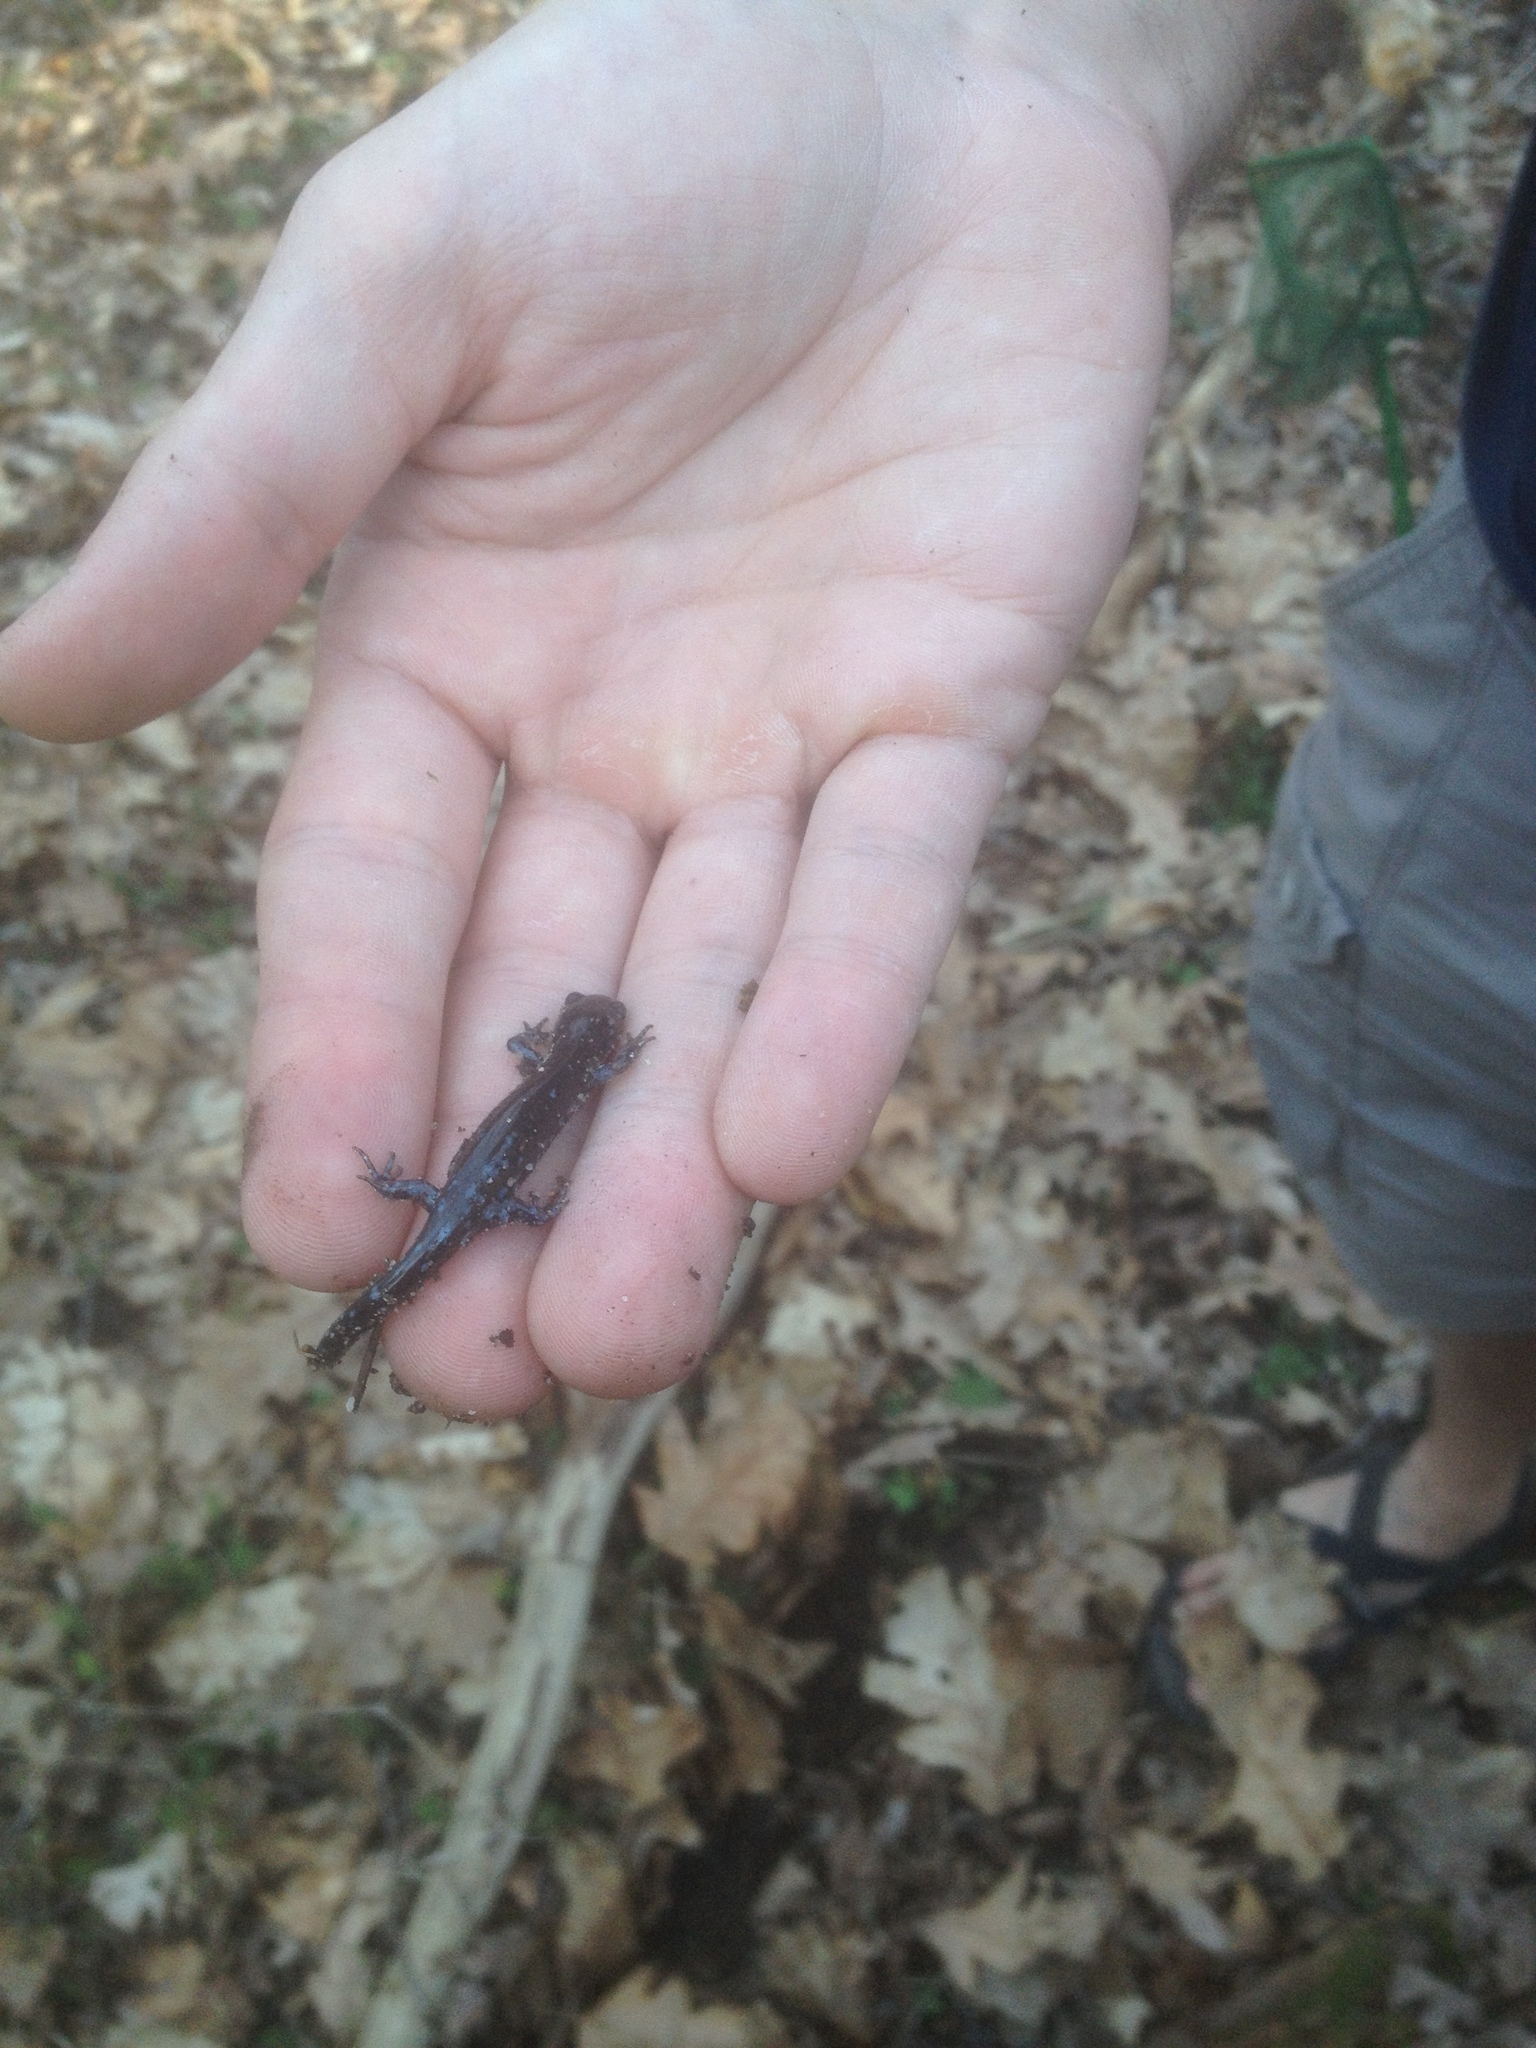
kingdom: Animalia
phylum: Chordata
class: Amphibia
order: Caudata
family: Ambystomatidae
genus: Ambystoma
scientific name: Ambystoma laterale
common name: Blue-spotted salamander
